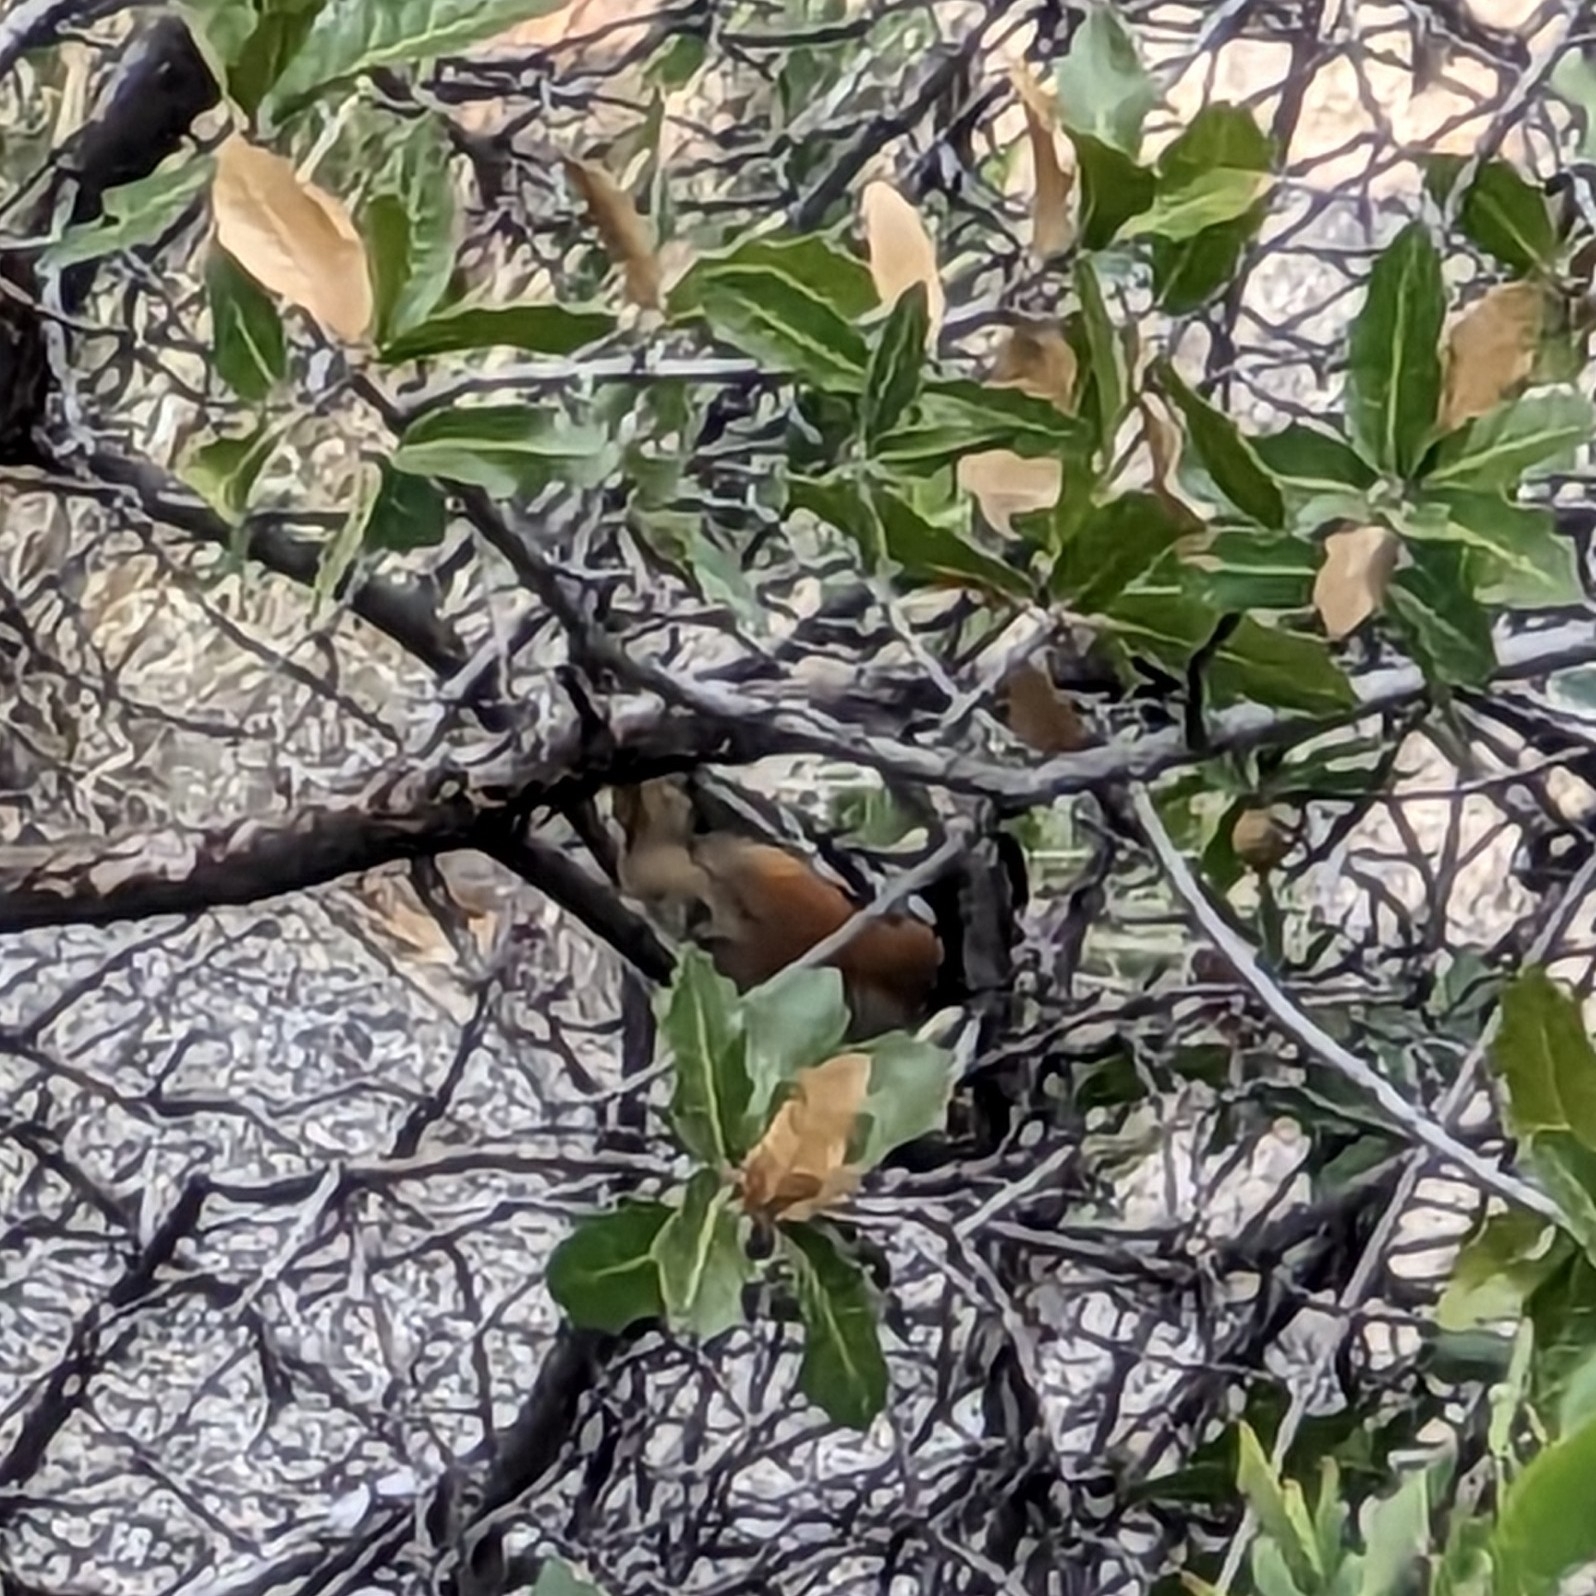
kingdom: Animalia
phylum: Chordata
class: Aves
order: Passeriformes
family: Passerellidae
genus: Pipilo
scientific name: Pipilo maculatus
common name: Spotted towhee
